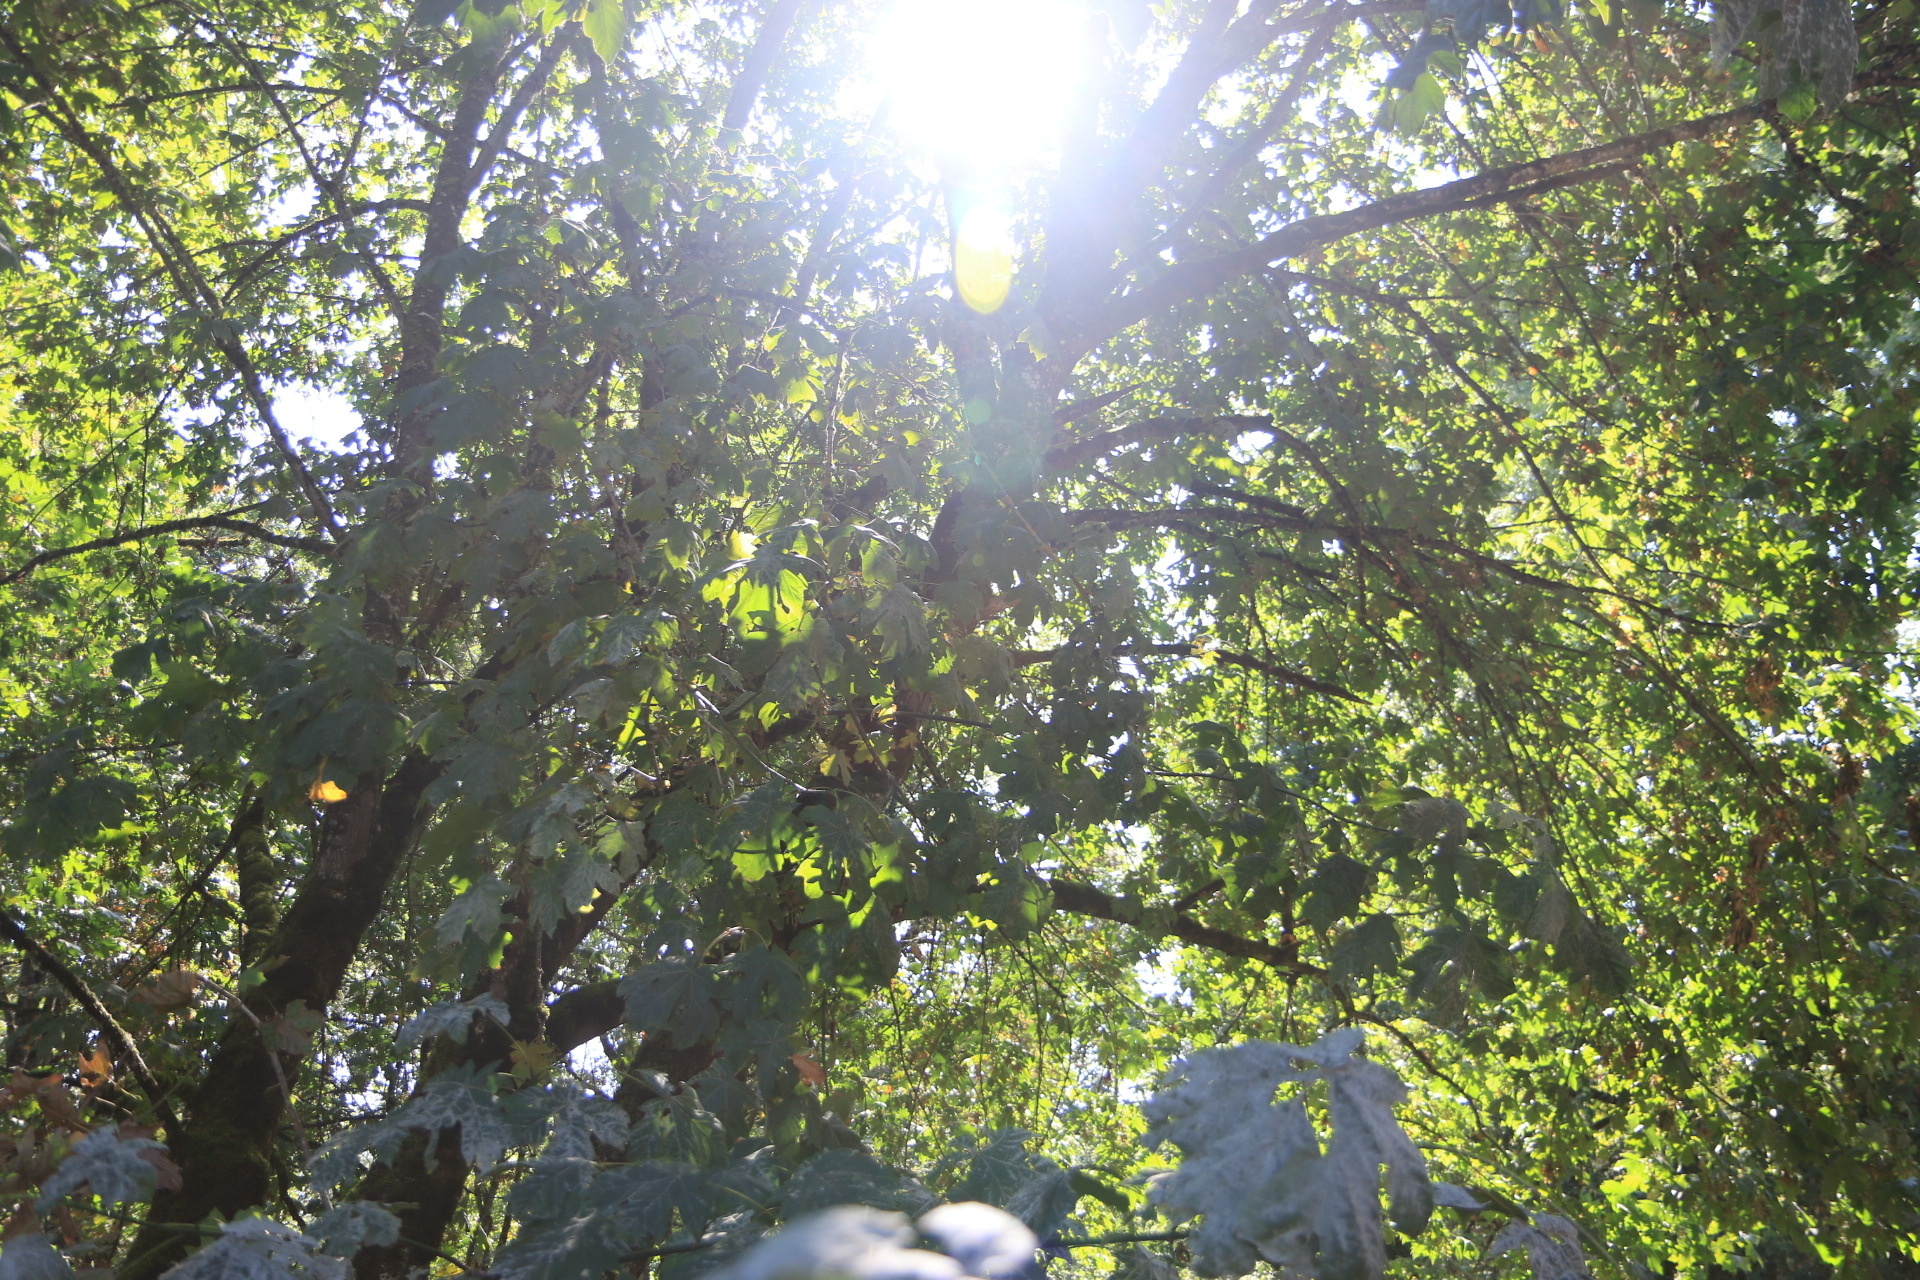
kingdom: Plantae
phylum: Tracheophyta
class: Magnoliopsida
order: Sapindales
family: Sapindaceae
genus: Acer
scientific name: Acer macrophyllum
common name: Oregon maple
